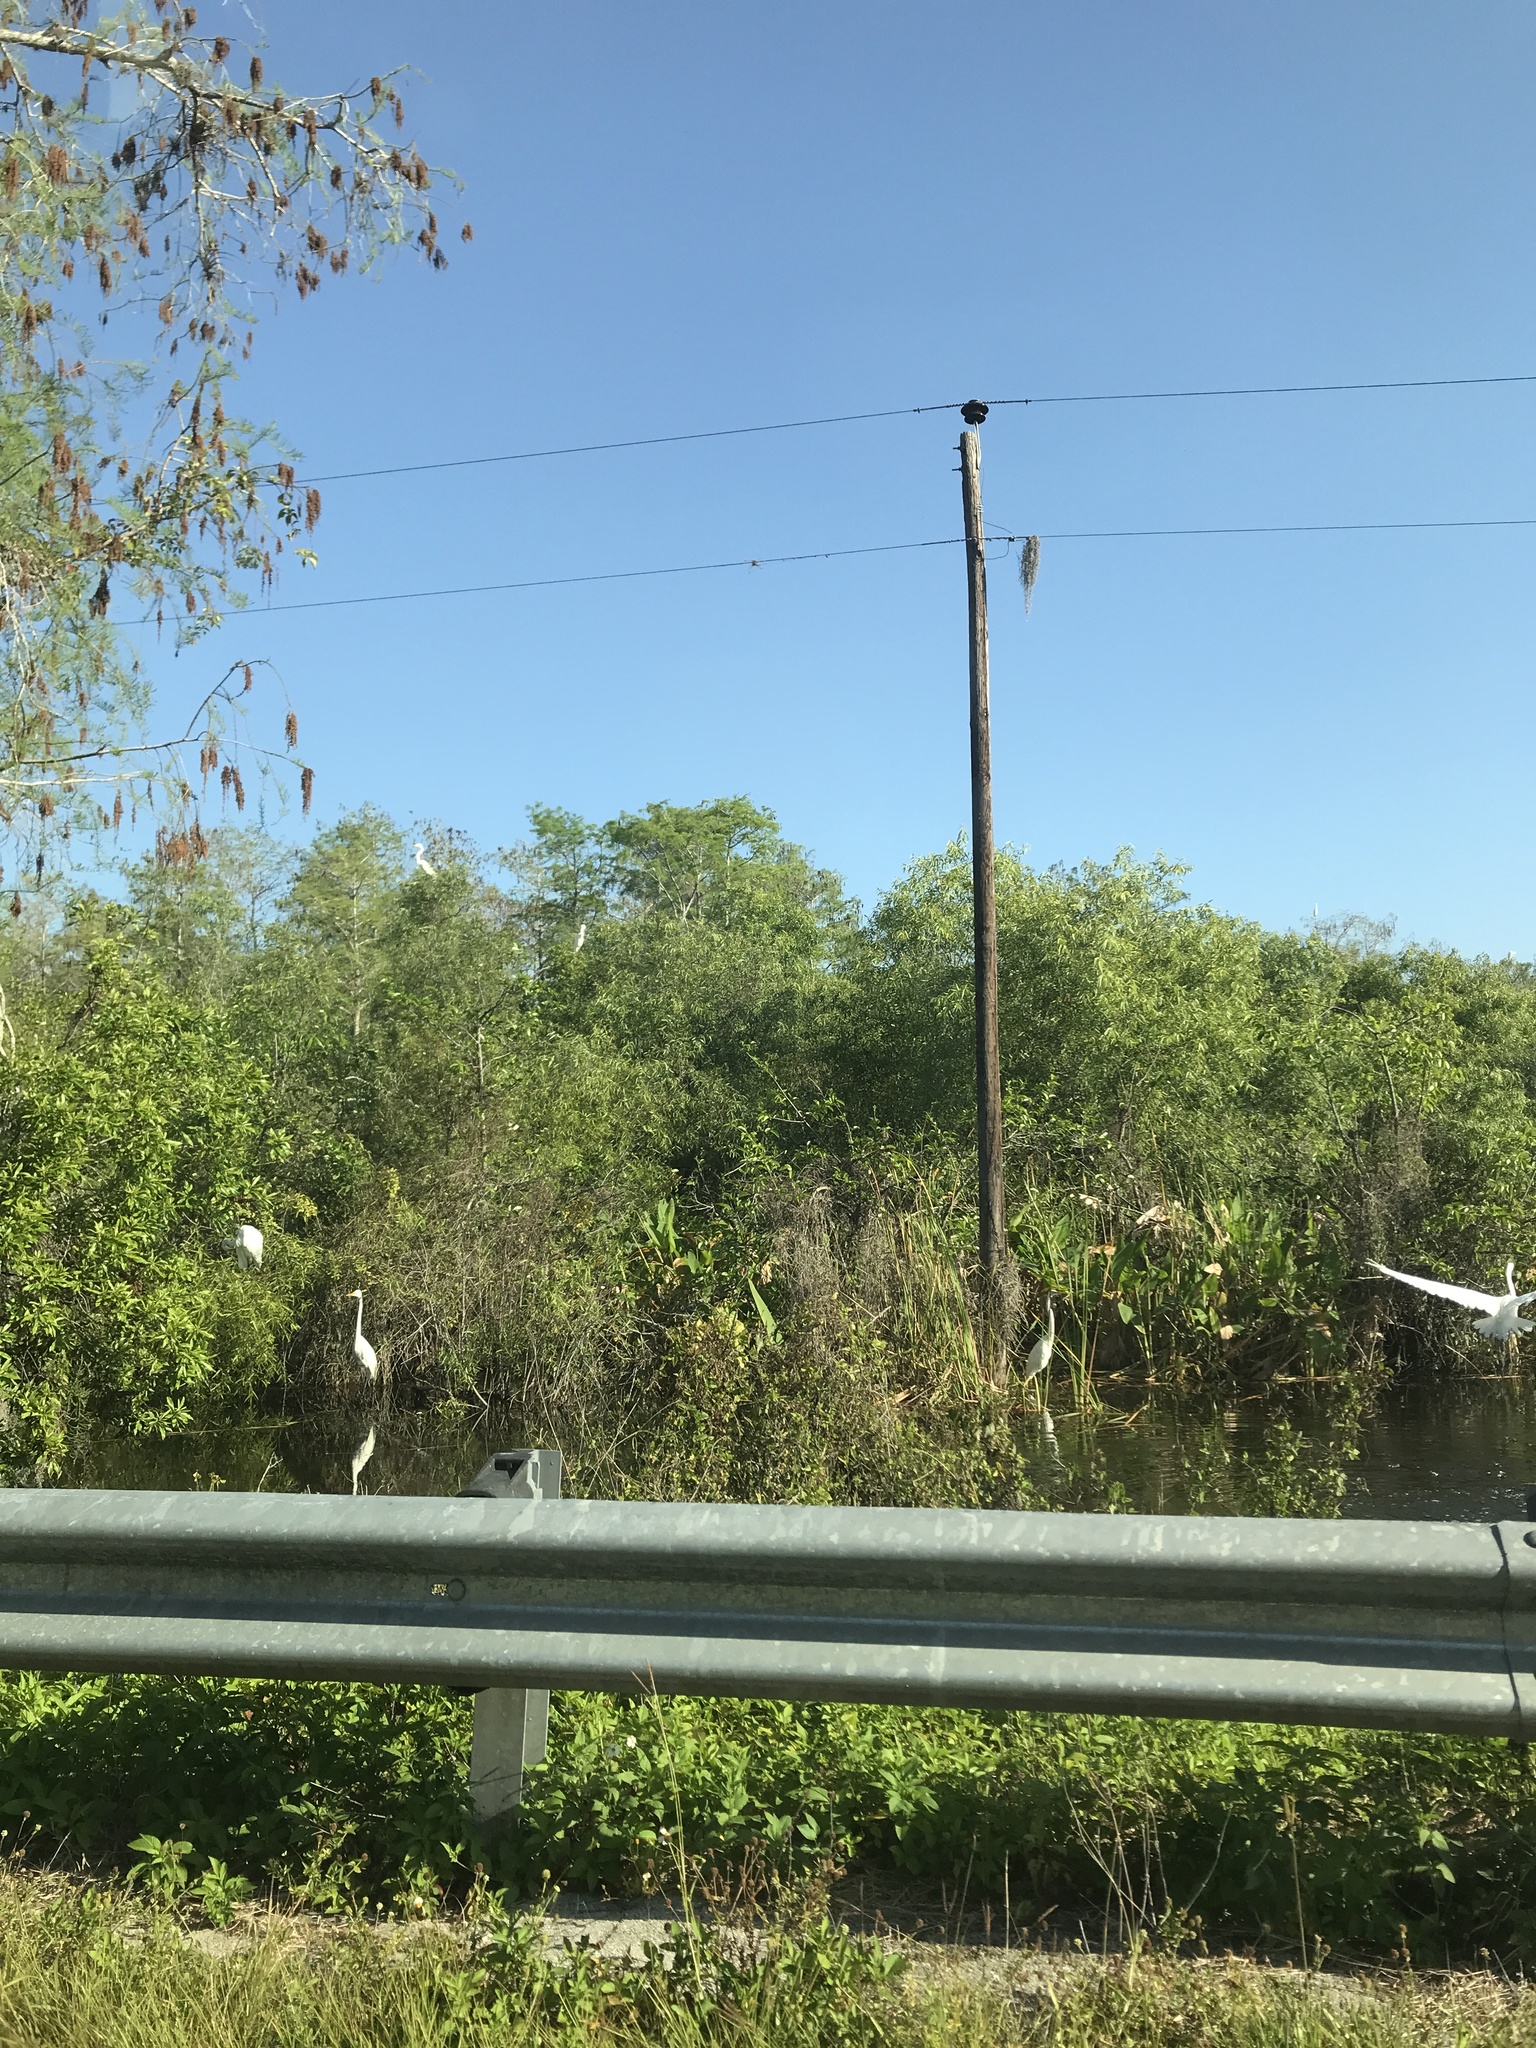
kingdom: Animalia
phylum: Chordata
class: Aves
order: Pelecaniformes
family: Ardeidae
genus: Ardea
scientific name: Ardea alba
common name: Great egret
